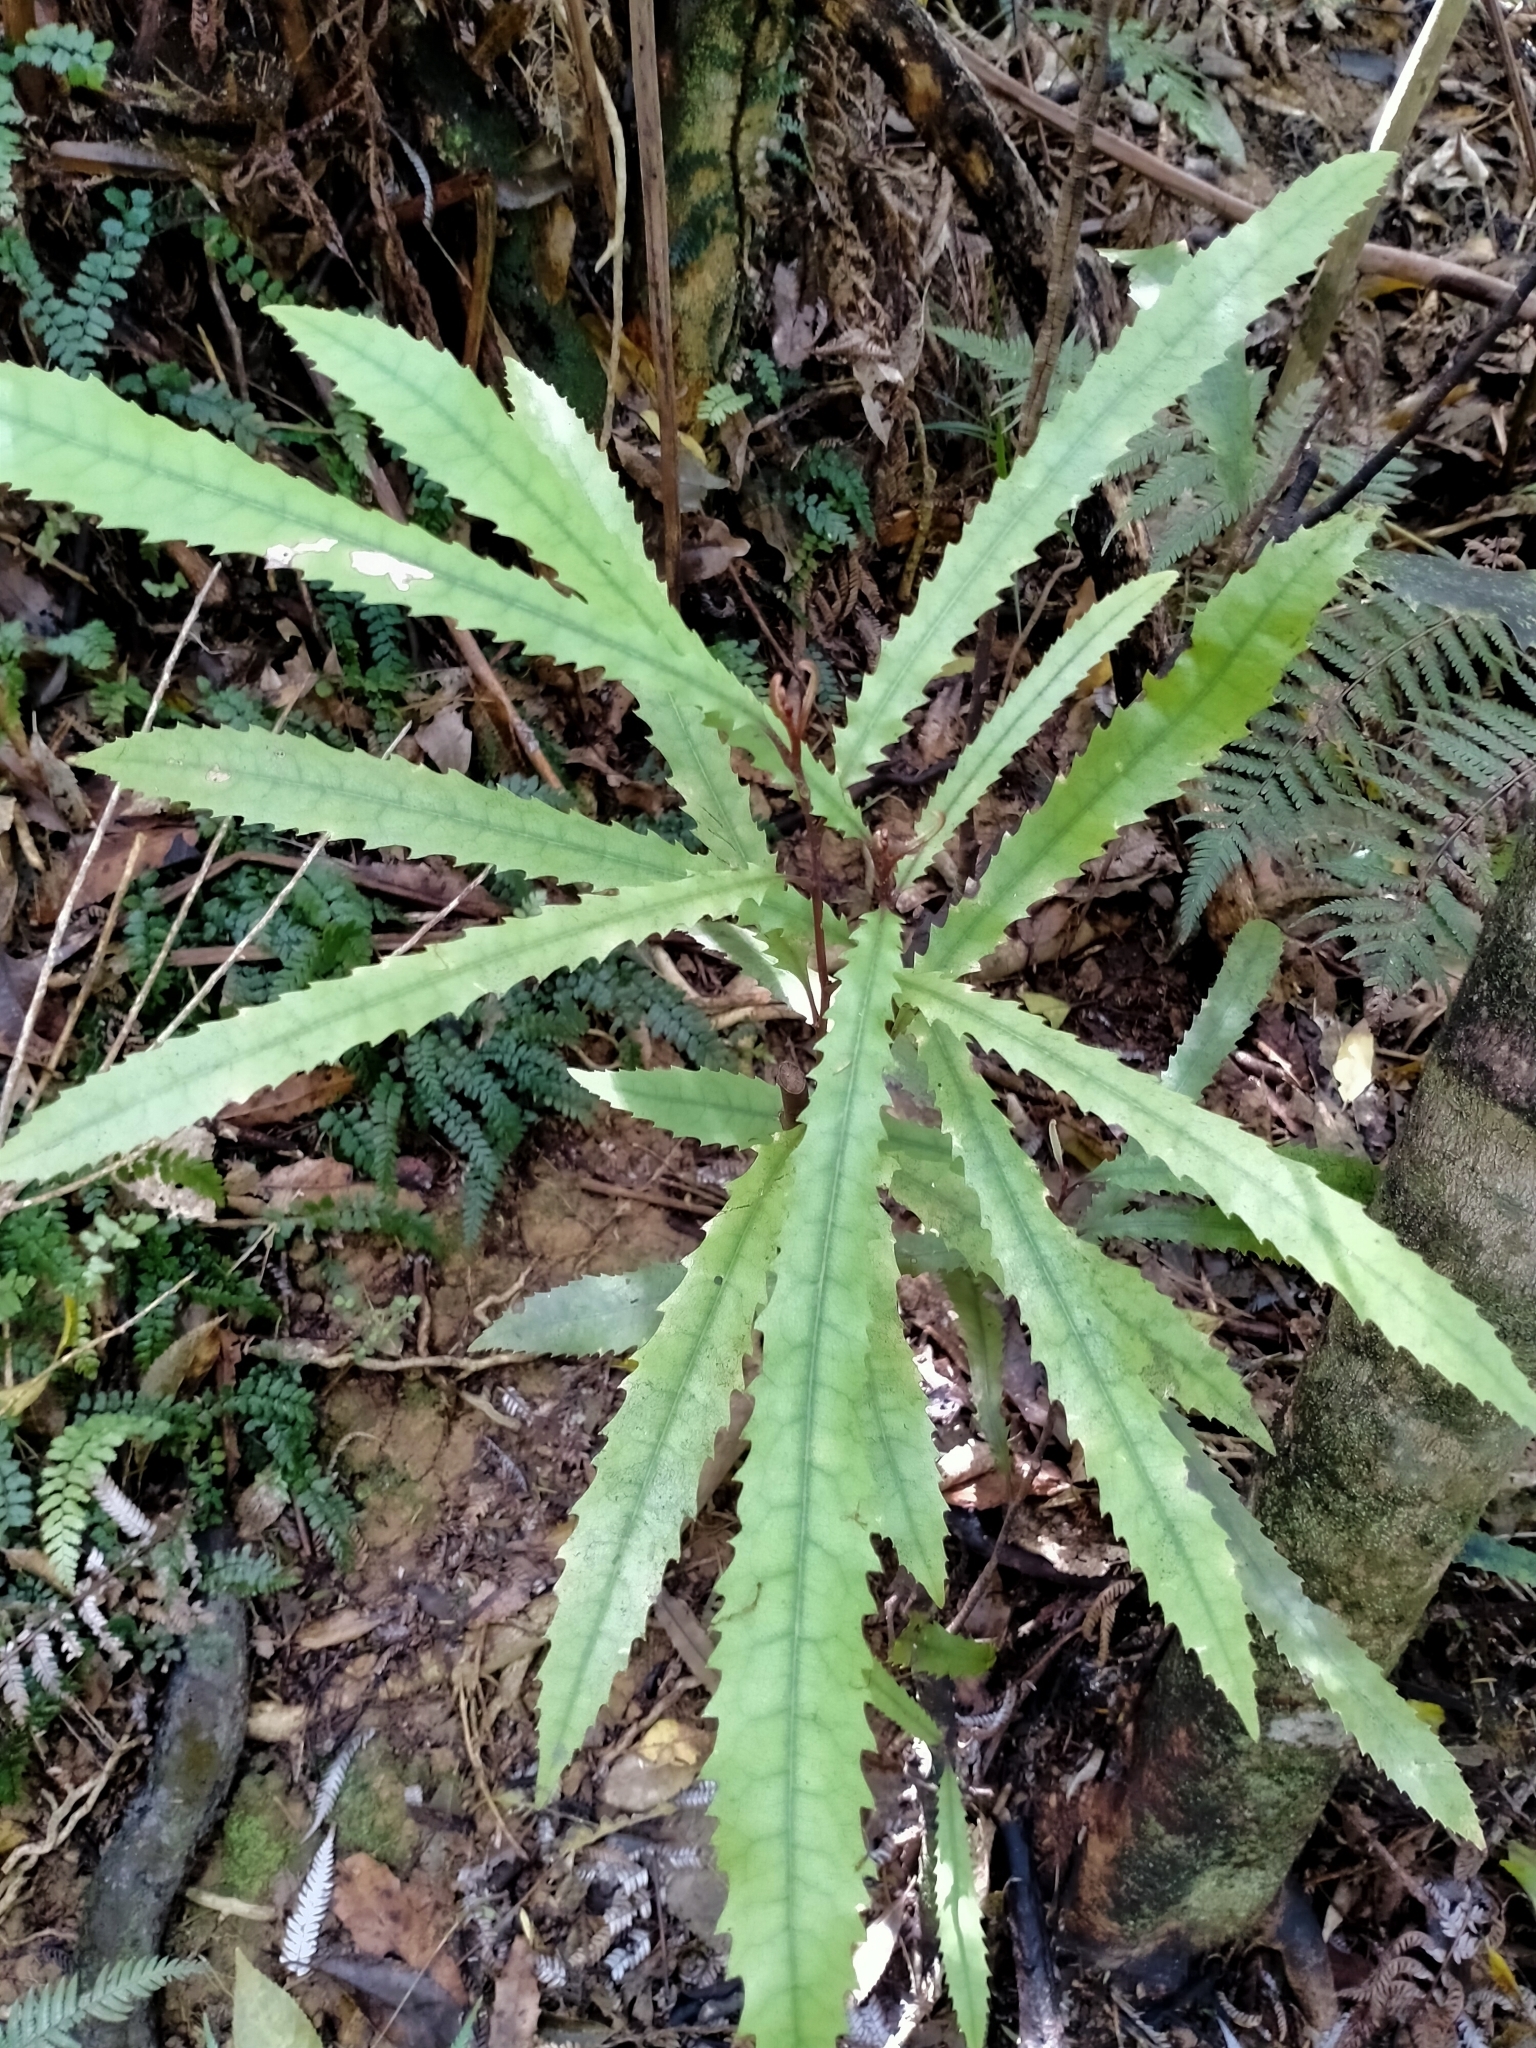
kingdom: Plantae
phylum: Tracheophyta
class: Magnoliopsida
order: Proteales
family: Proteaceae
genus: Knightia
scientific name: Knightia excelsa
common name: New zealand-honeysuckle
